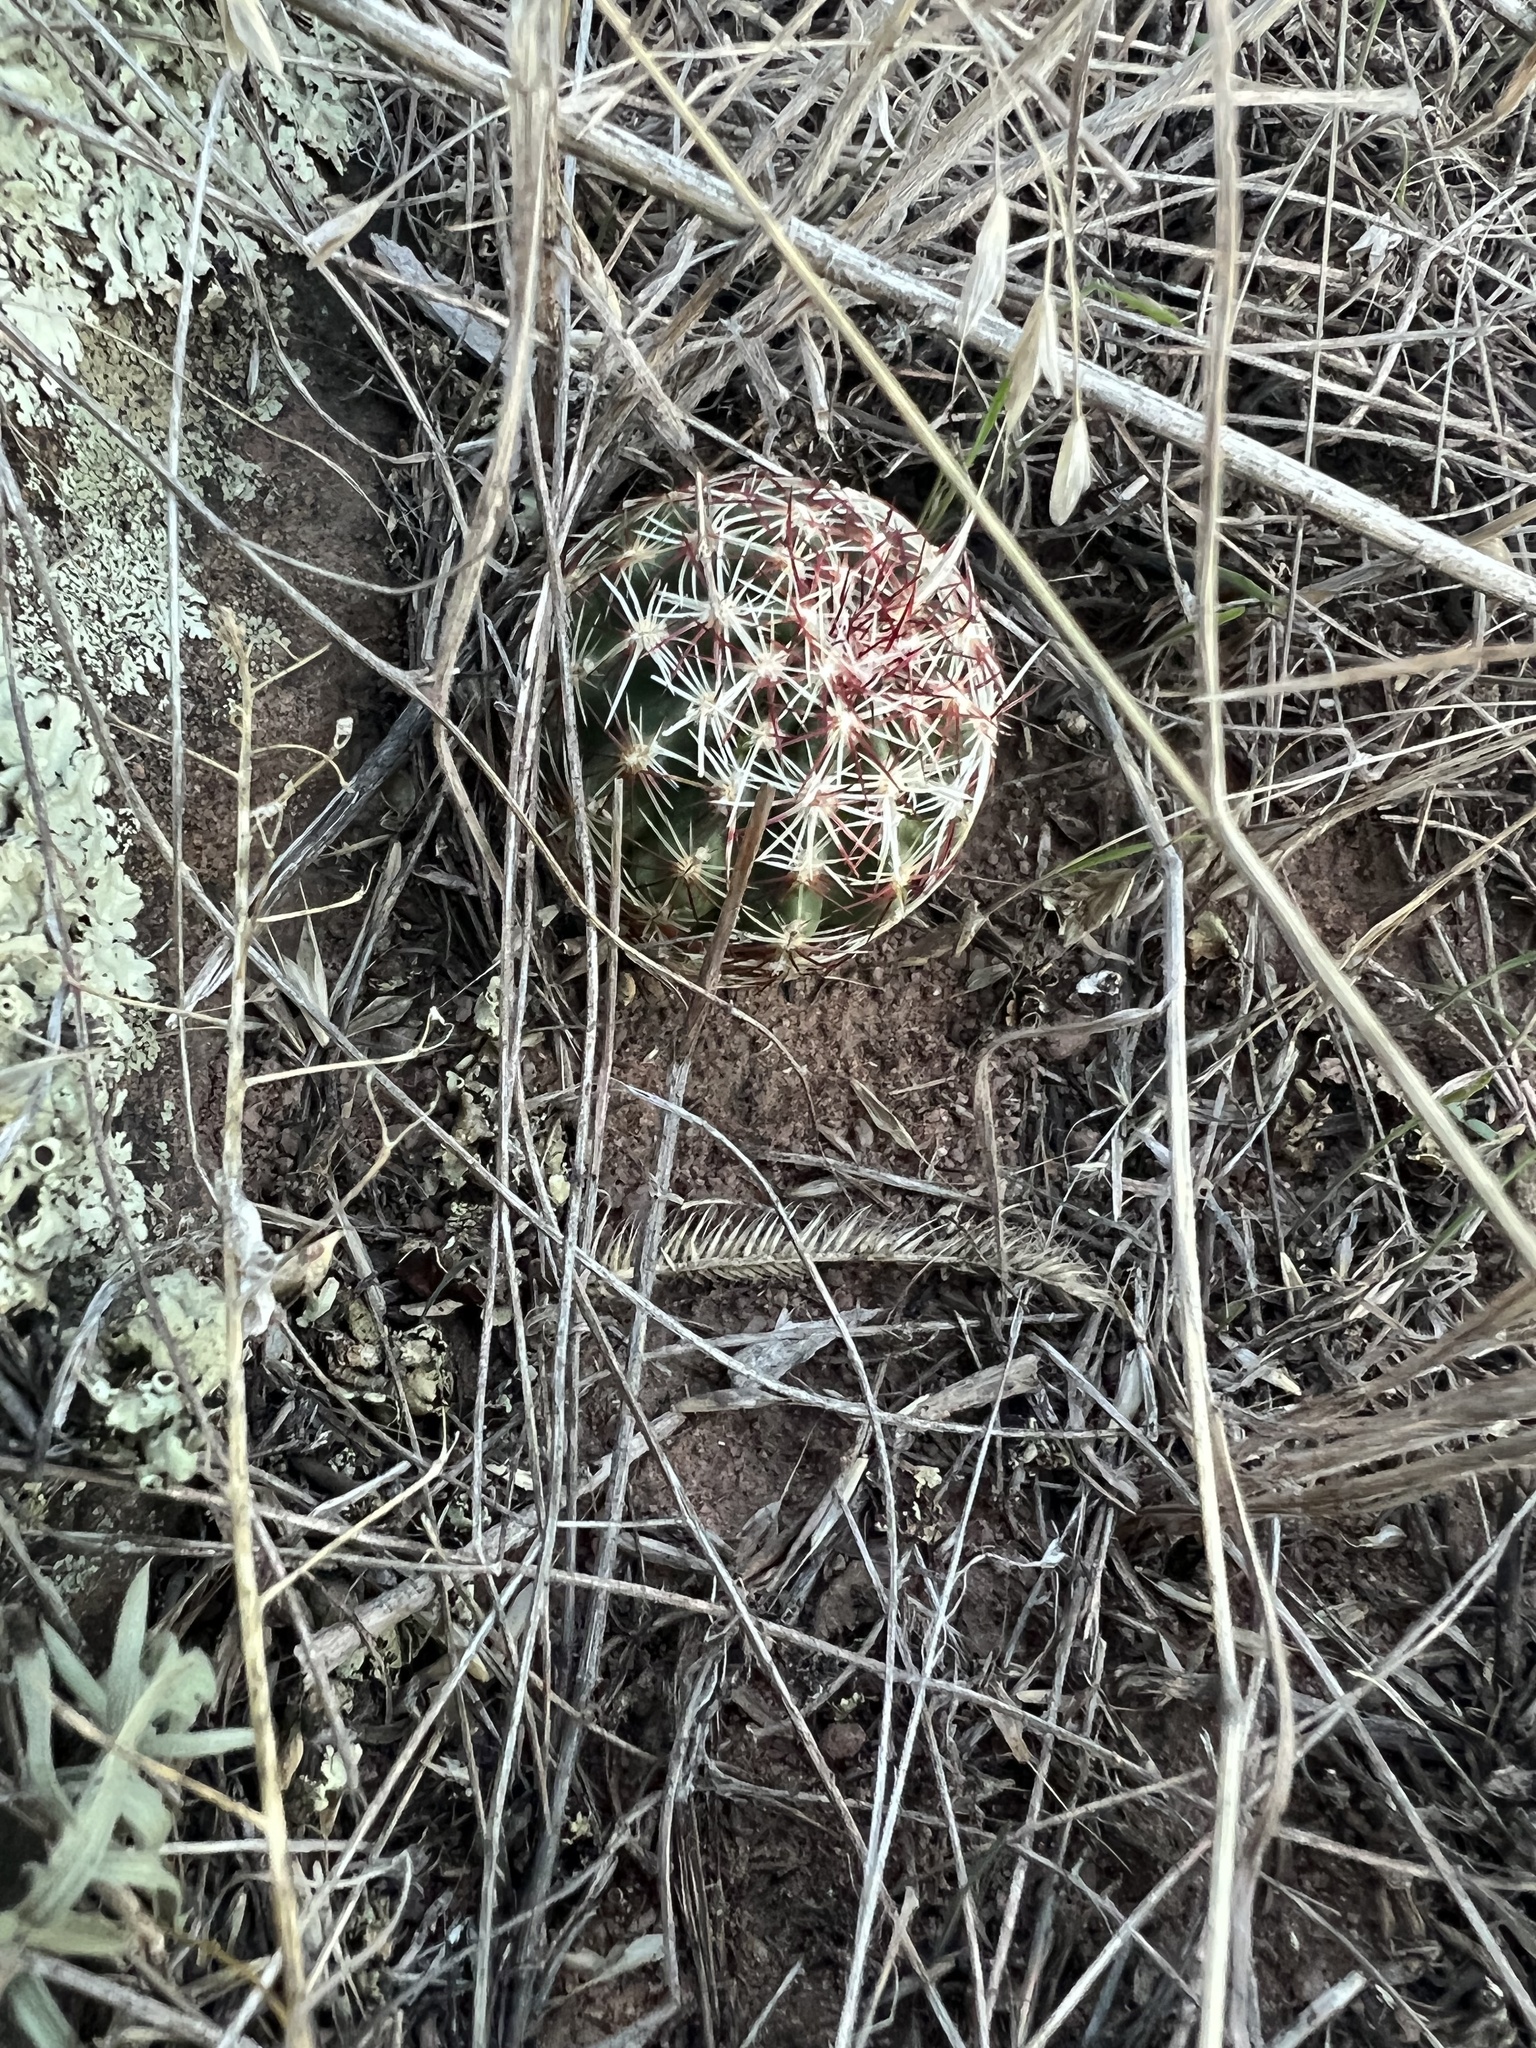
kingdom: Plantae
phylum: Tracheophyta
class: Magnoliopsida
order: Caryophyllales
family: Cactaceae
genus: Echinocereus
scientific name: Echinocereus viridiflorus
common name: Nylon hedgehog cactus
